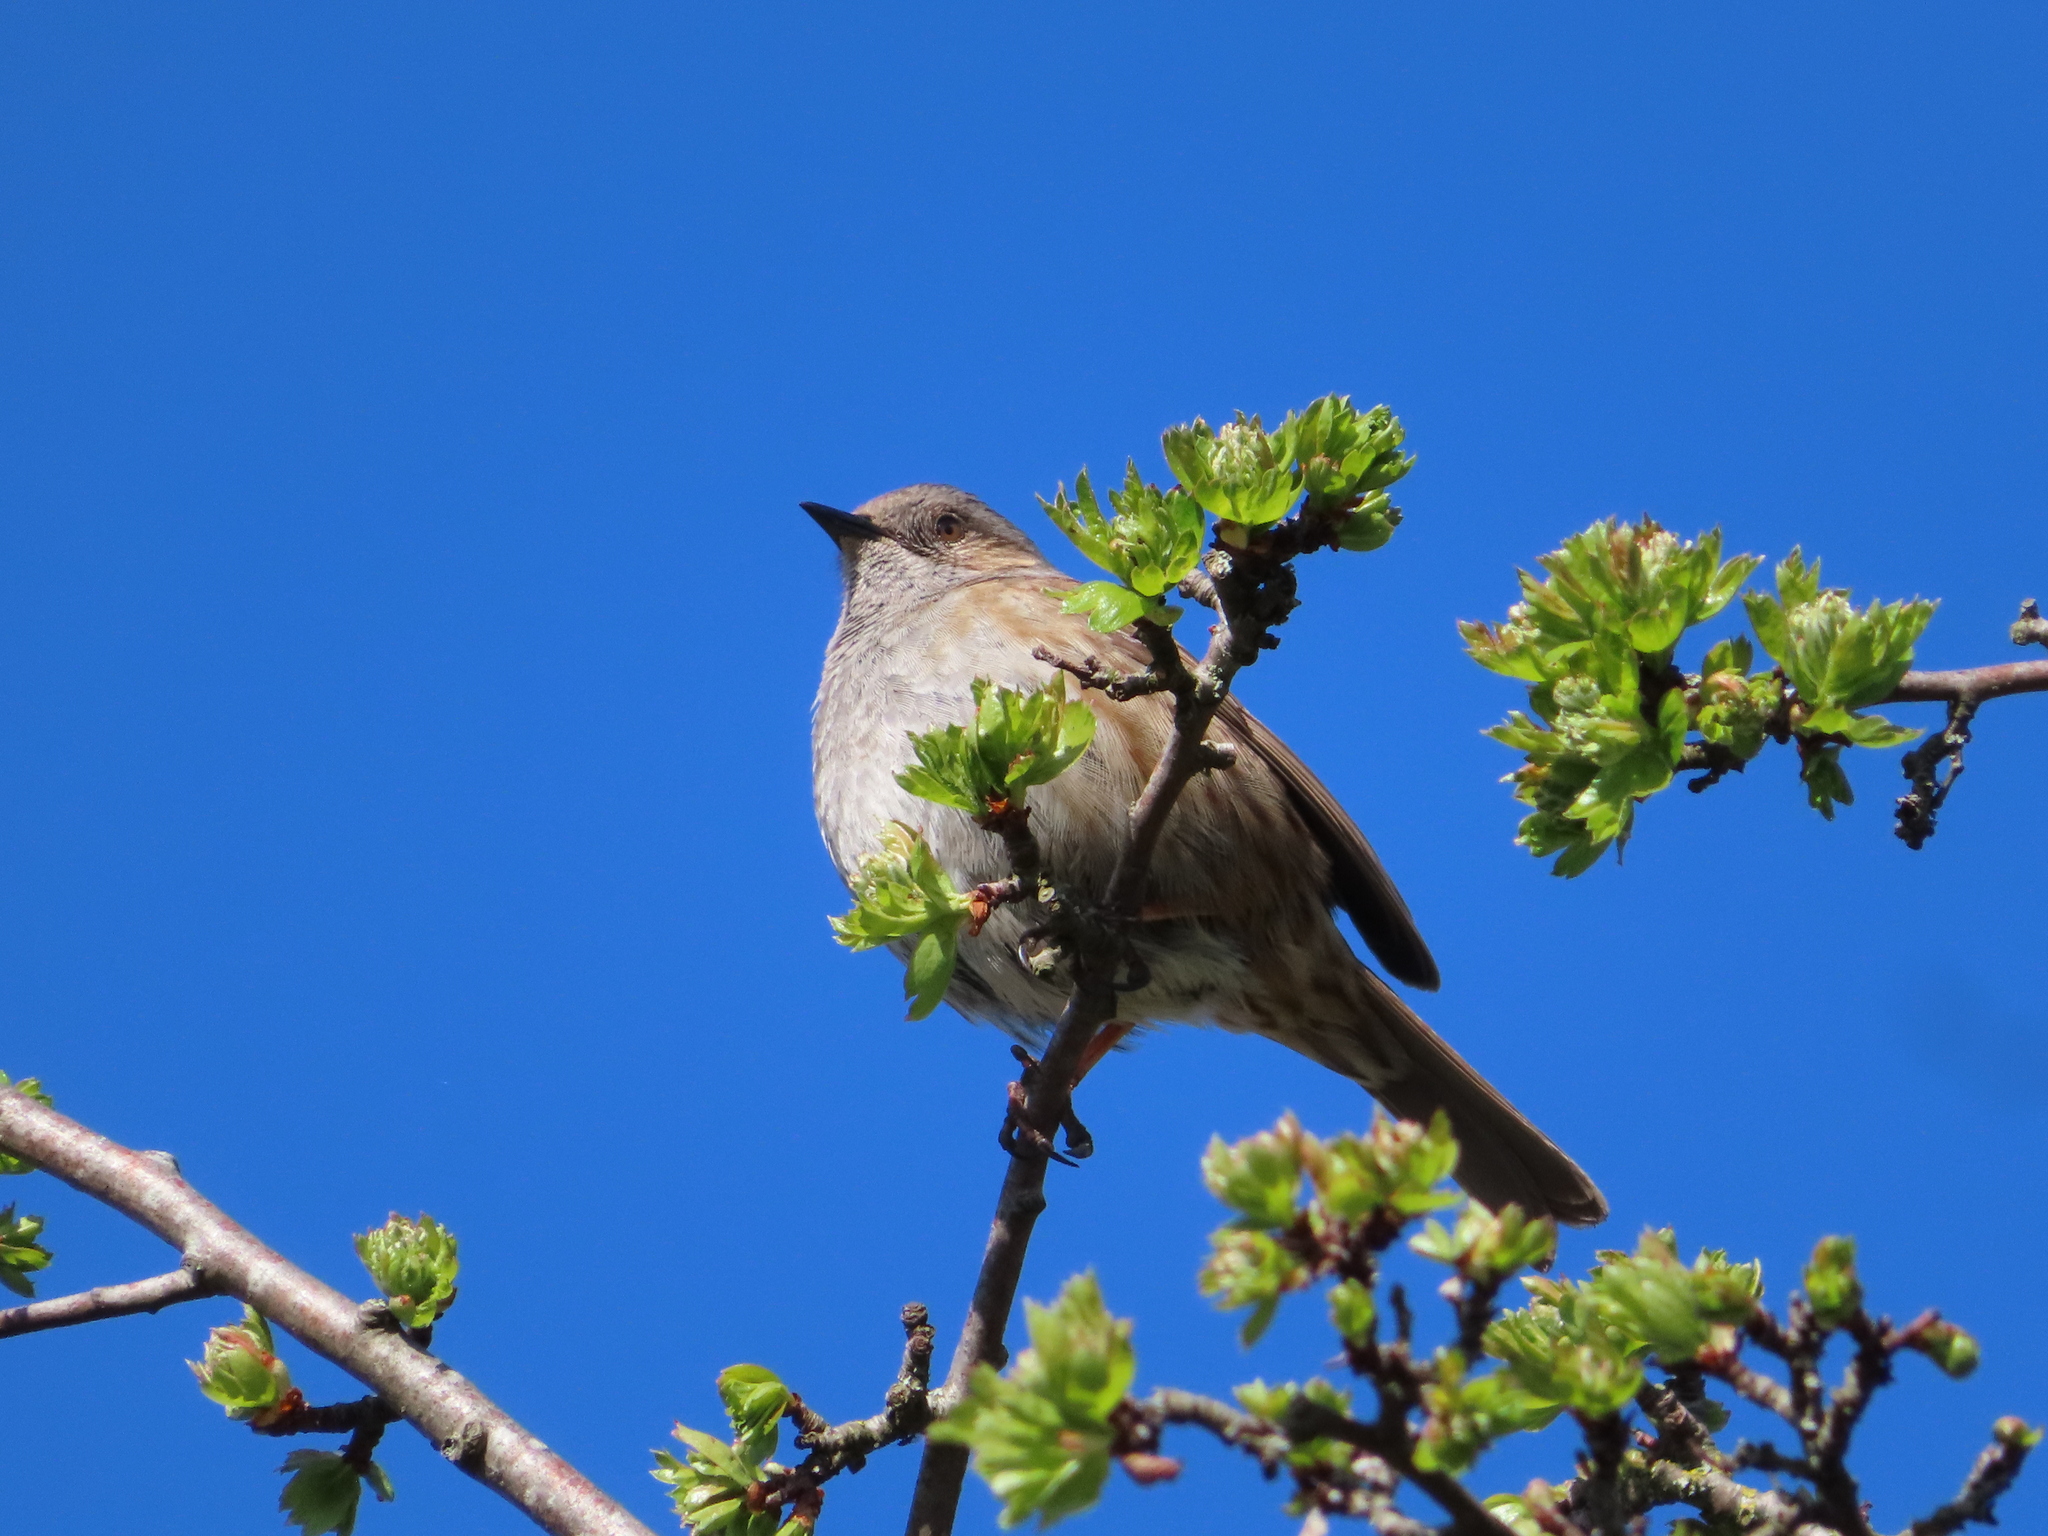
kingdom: Animalia
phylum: Chordata
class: Aves
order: Passeriformes
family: Prunellidae
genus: Prunella
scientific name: Prunella modularis
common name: Dunnock
